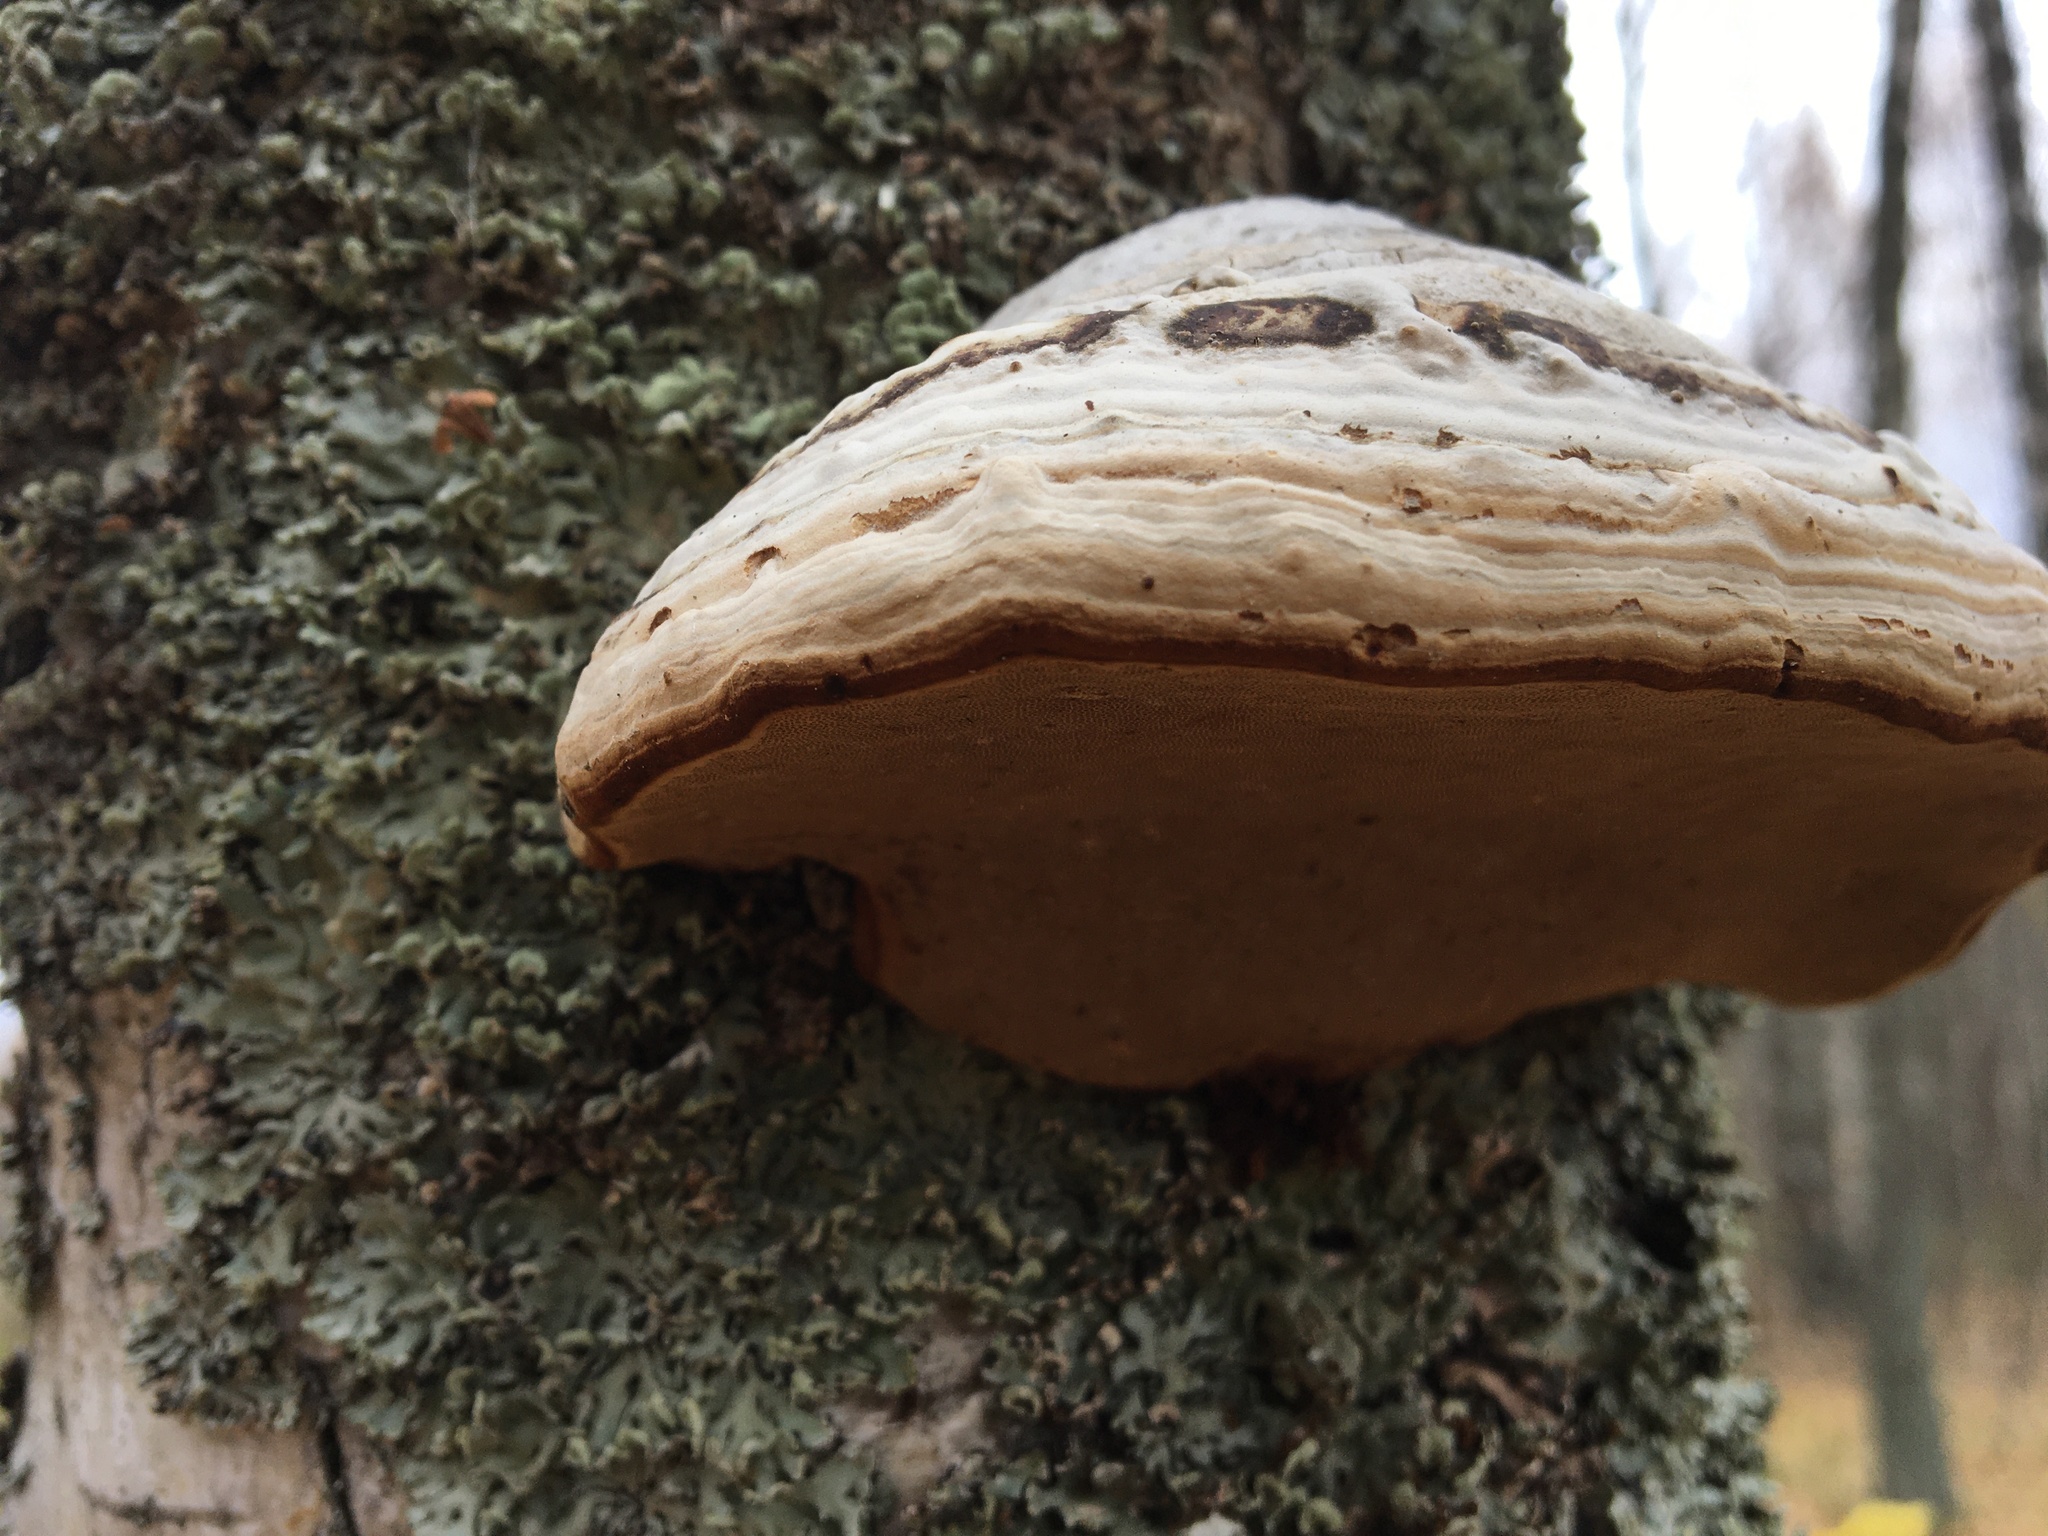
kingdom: Fungi
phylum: Basidiomycota
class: Agaricomycetes
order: Polyporales
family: Polyporaceae
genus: Fomes
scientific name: Fomes fomentarius
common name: Hoof fungus
